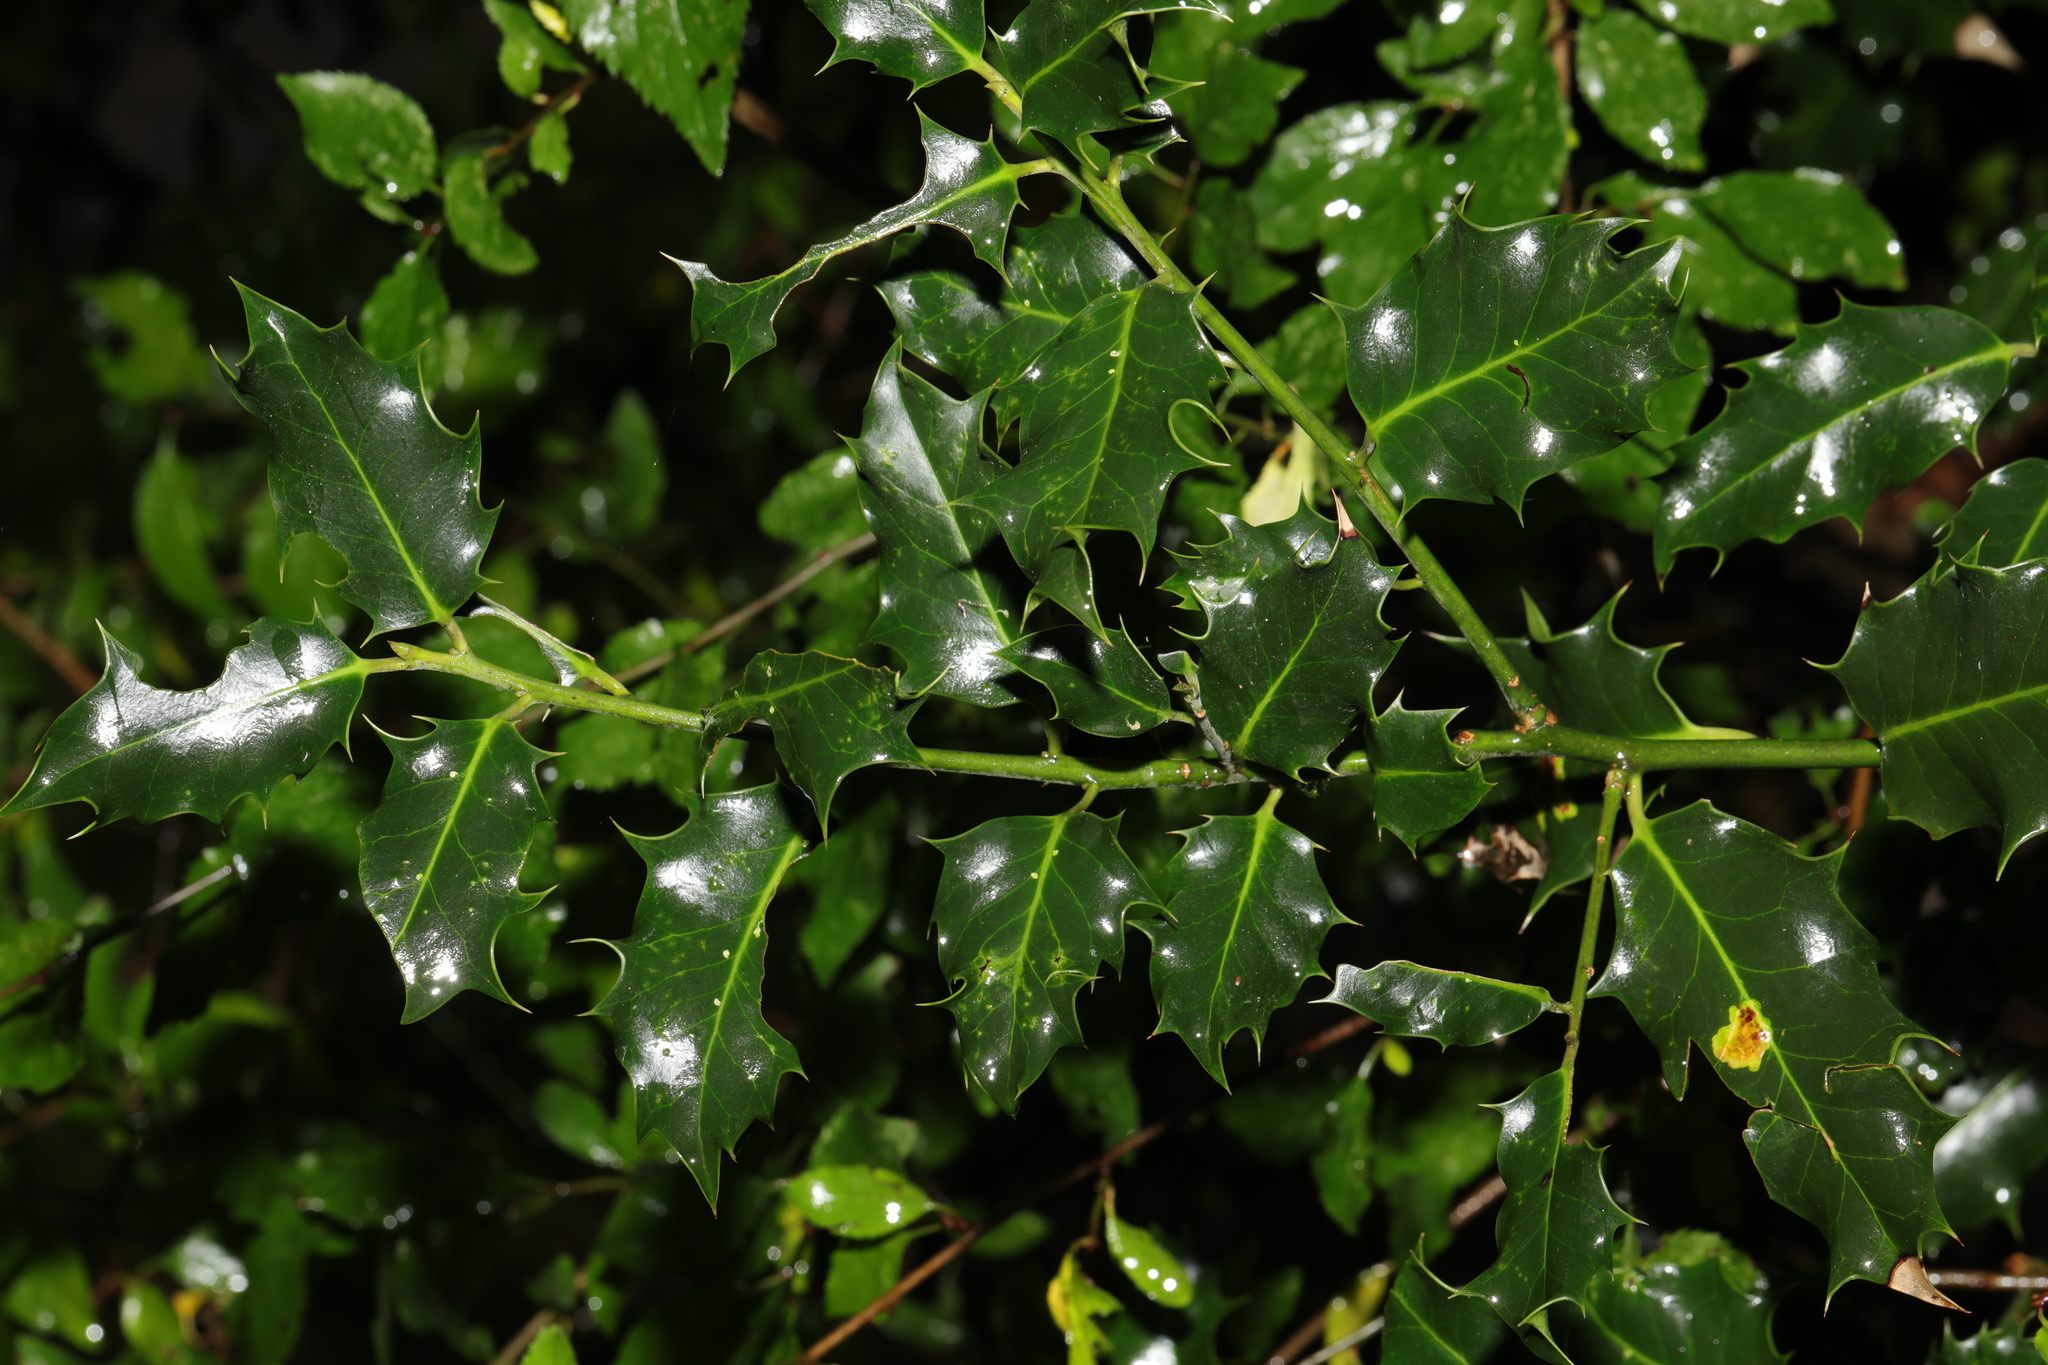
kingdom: Plantae
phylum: Tracheophyta
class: Magnoliopsida
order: Aquifoliales
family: Aquifoliaceae
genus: Ilex
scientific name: Ilex aquifolium
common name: English holly
